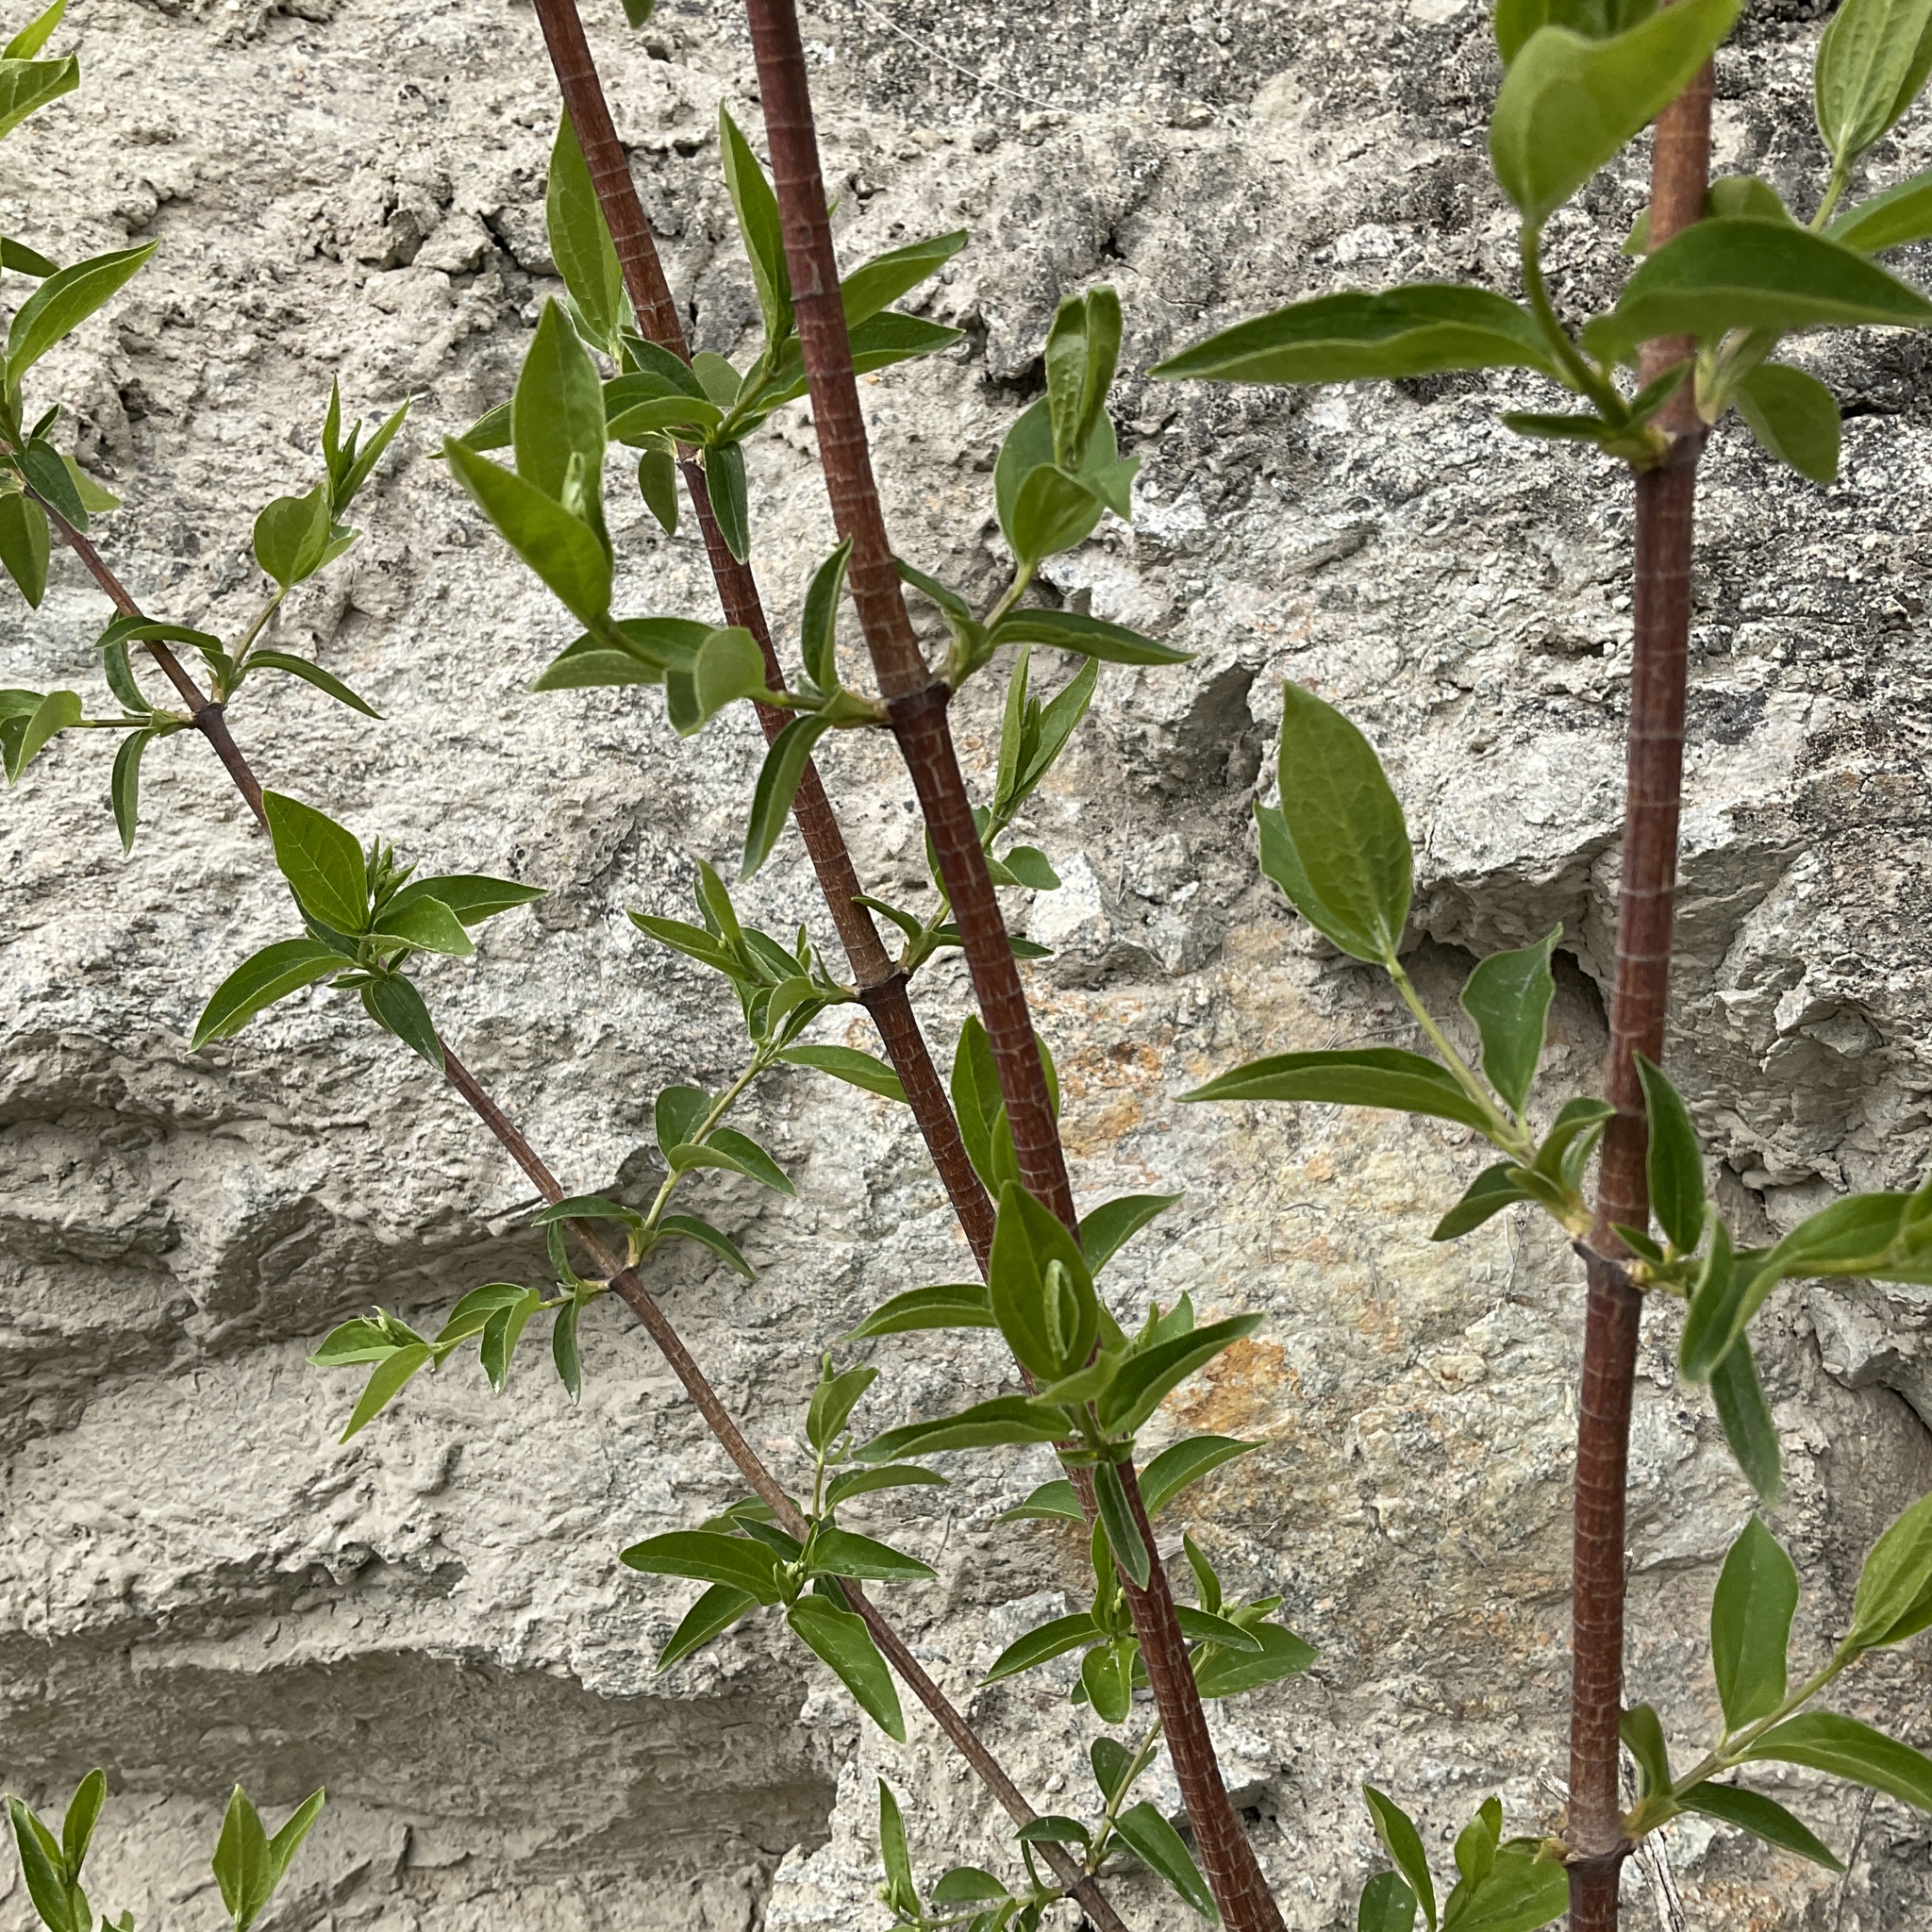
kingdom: Plantae
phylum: Tracheophyta
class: Magnoliopsida
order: Cornales
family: Hydrangeaceae
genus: Philadelphus
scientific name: Philadelphus lewisii
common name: Lewis's mock orange
